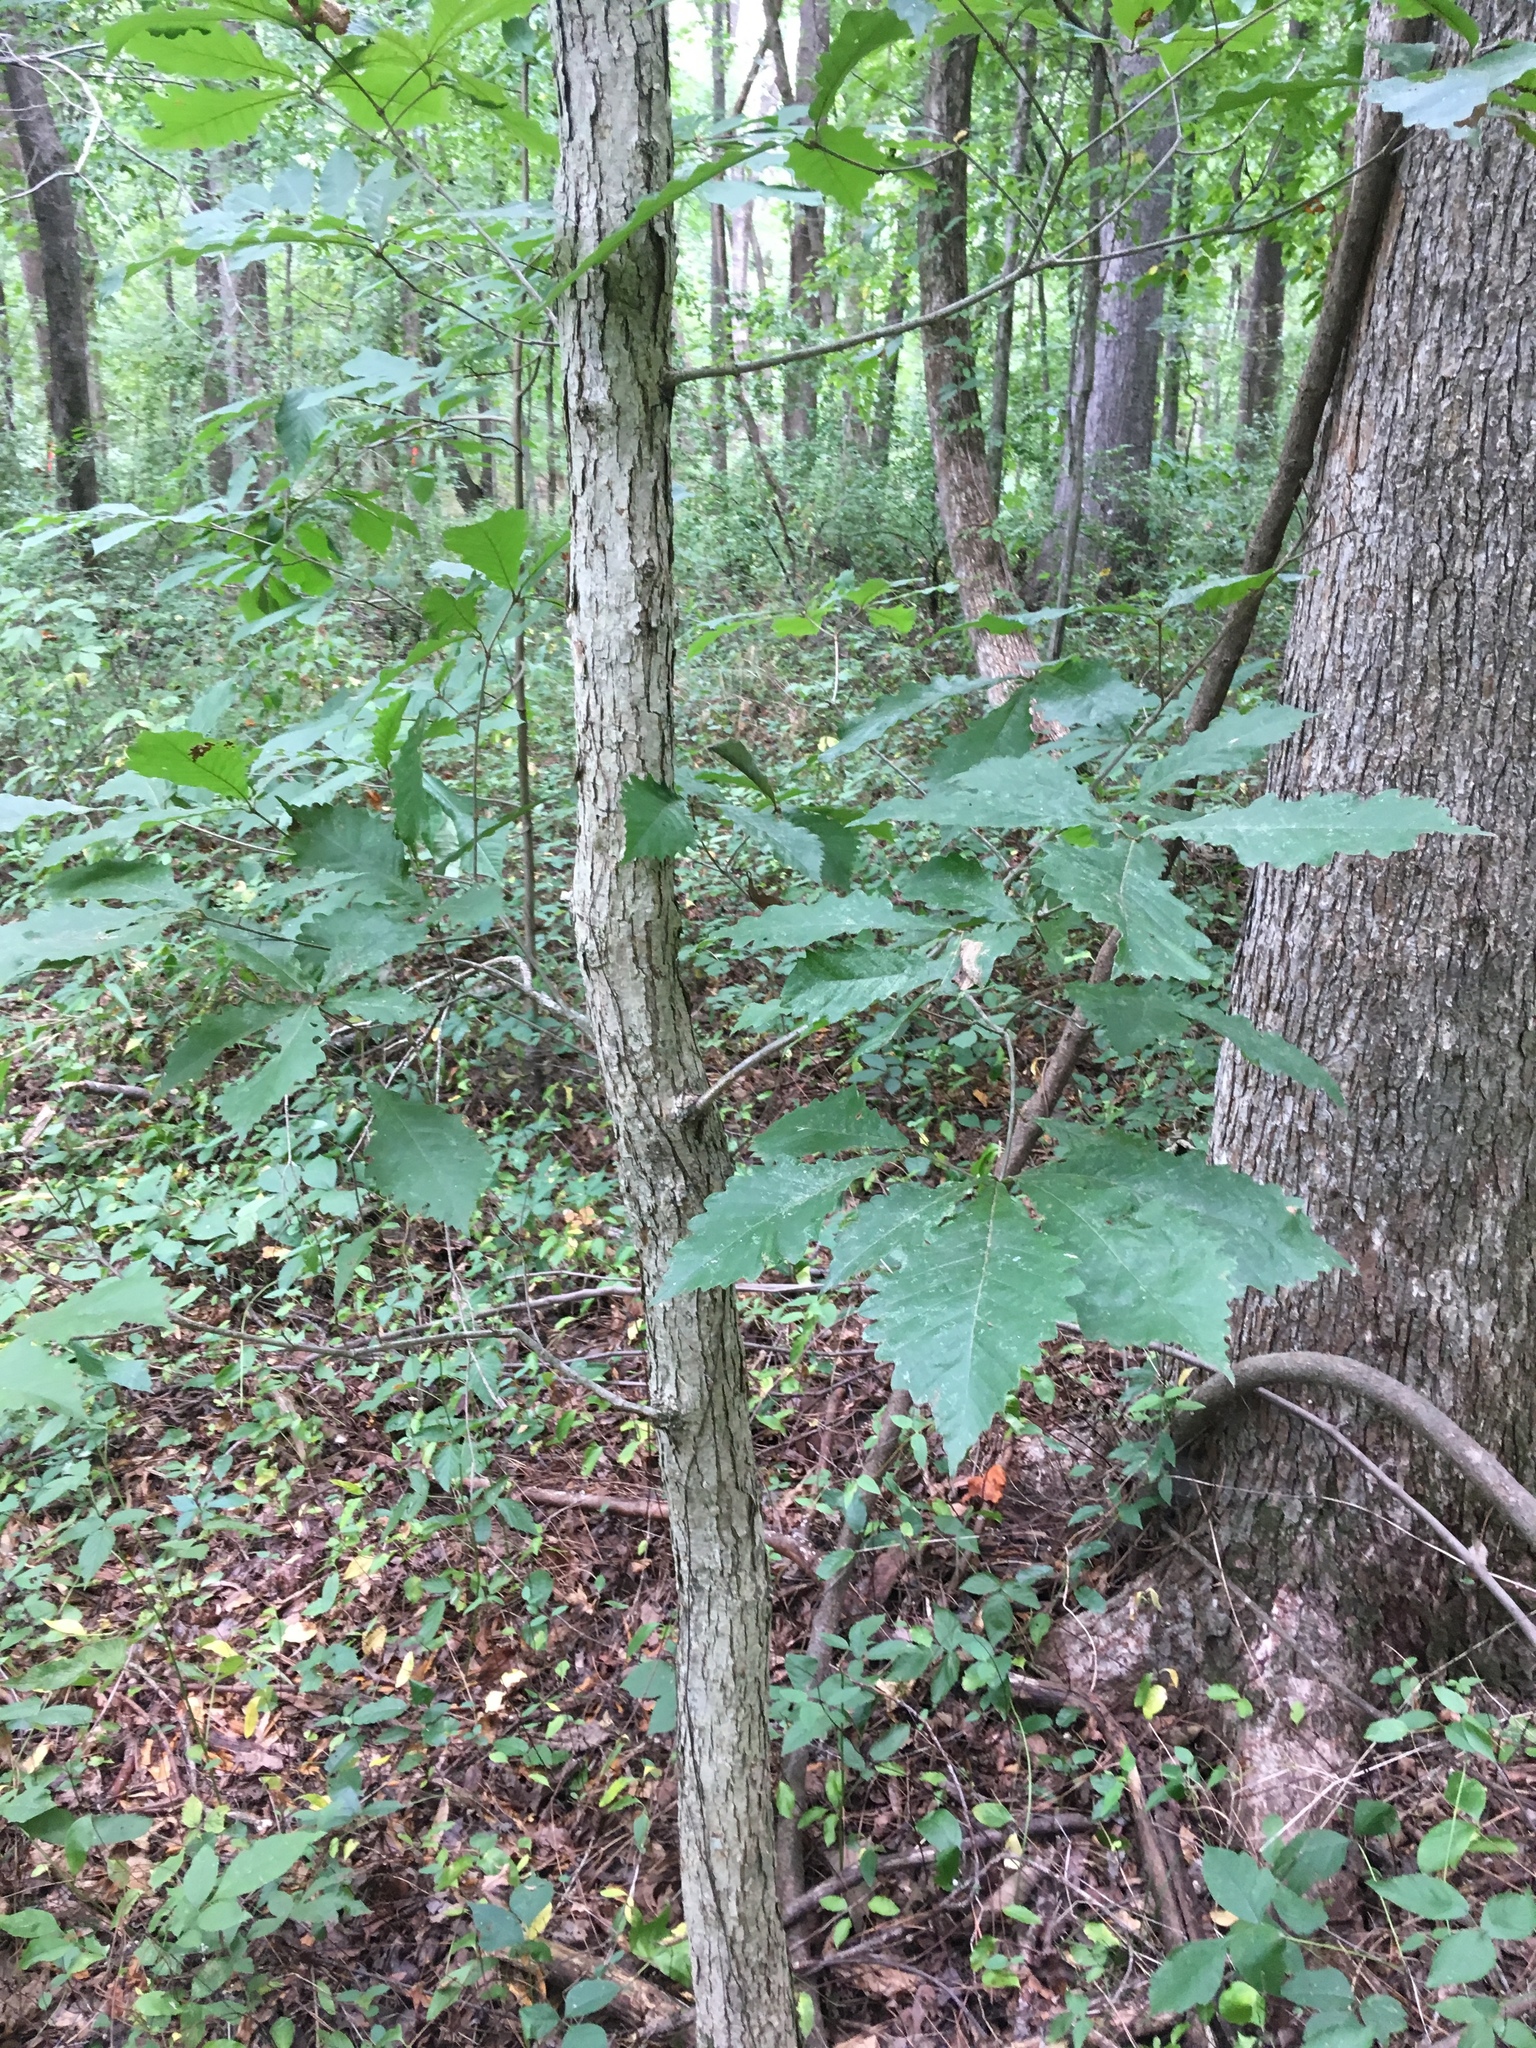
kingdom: Plantae
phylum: Tracheophyta
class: Magnoliopsida
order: Fagales
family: Fagaceae
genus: Quercus
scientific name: Quercus michauxii
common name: Swamp chestnut oak
